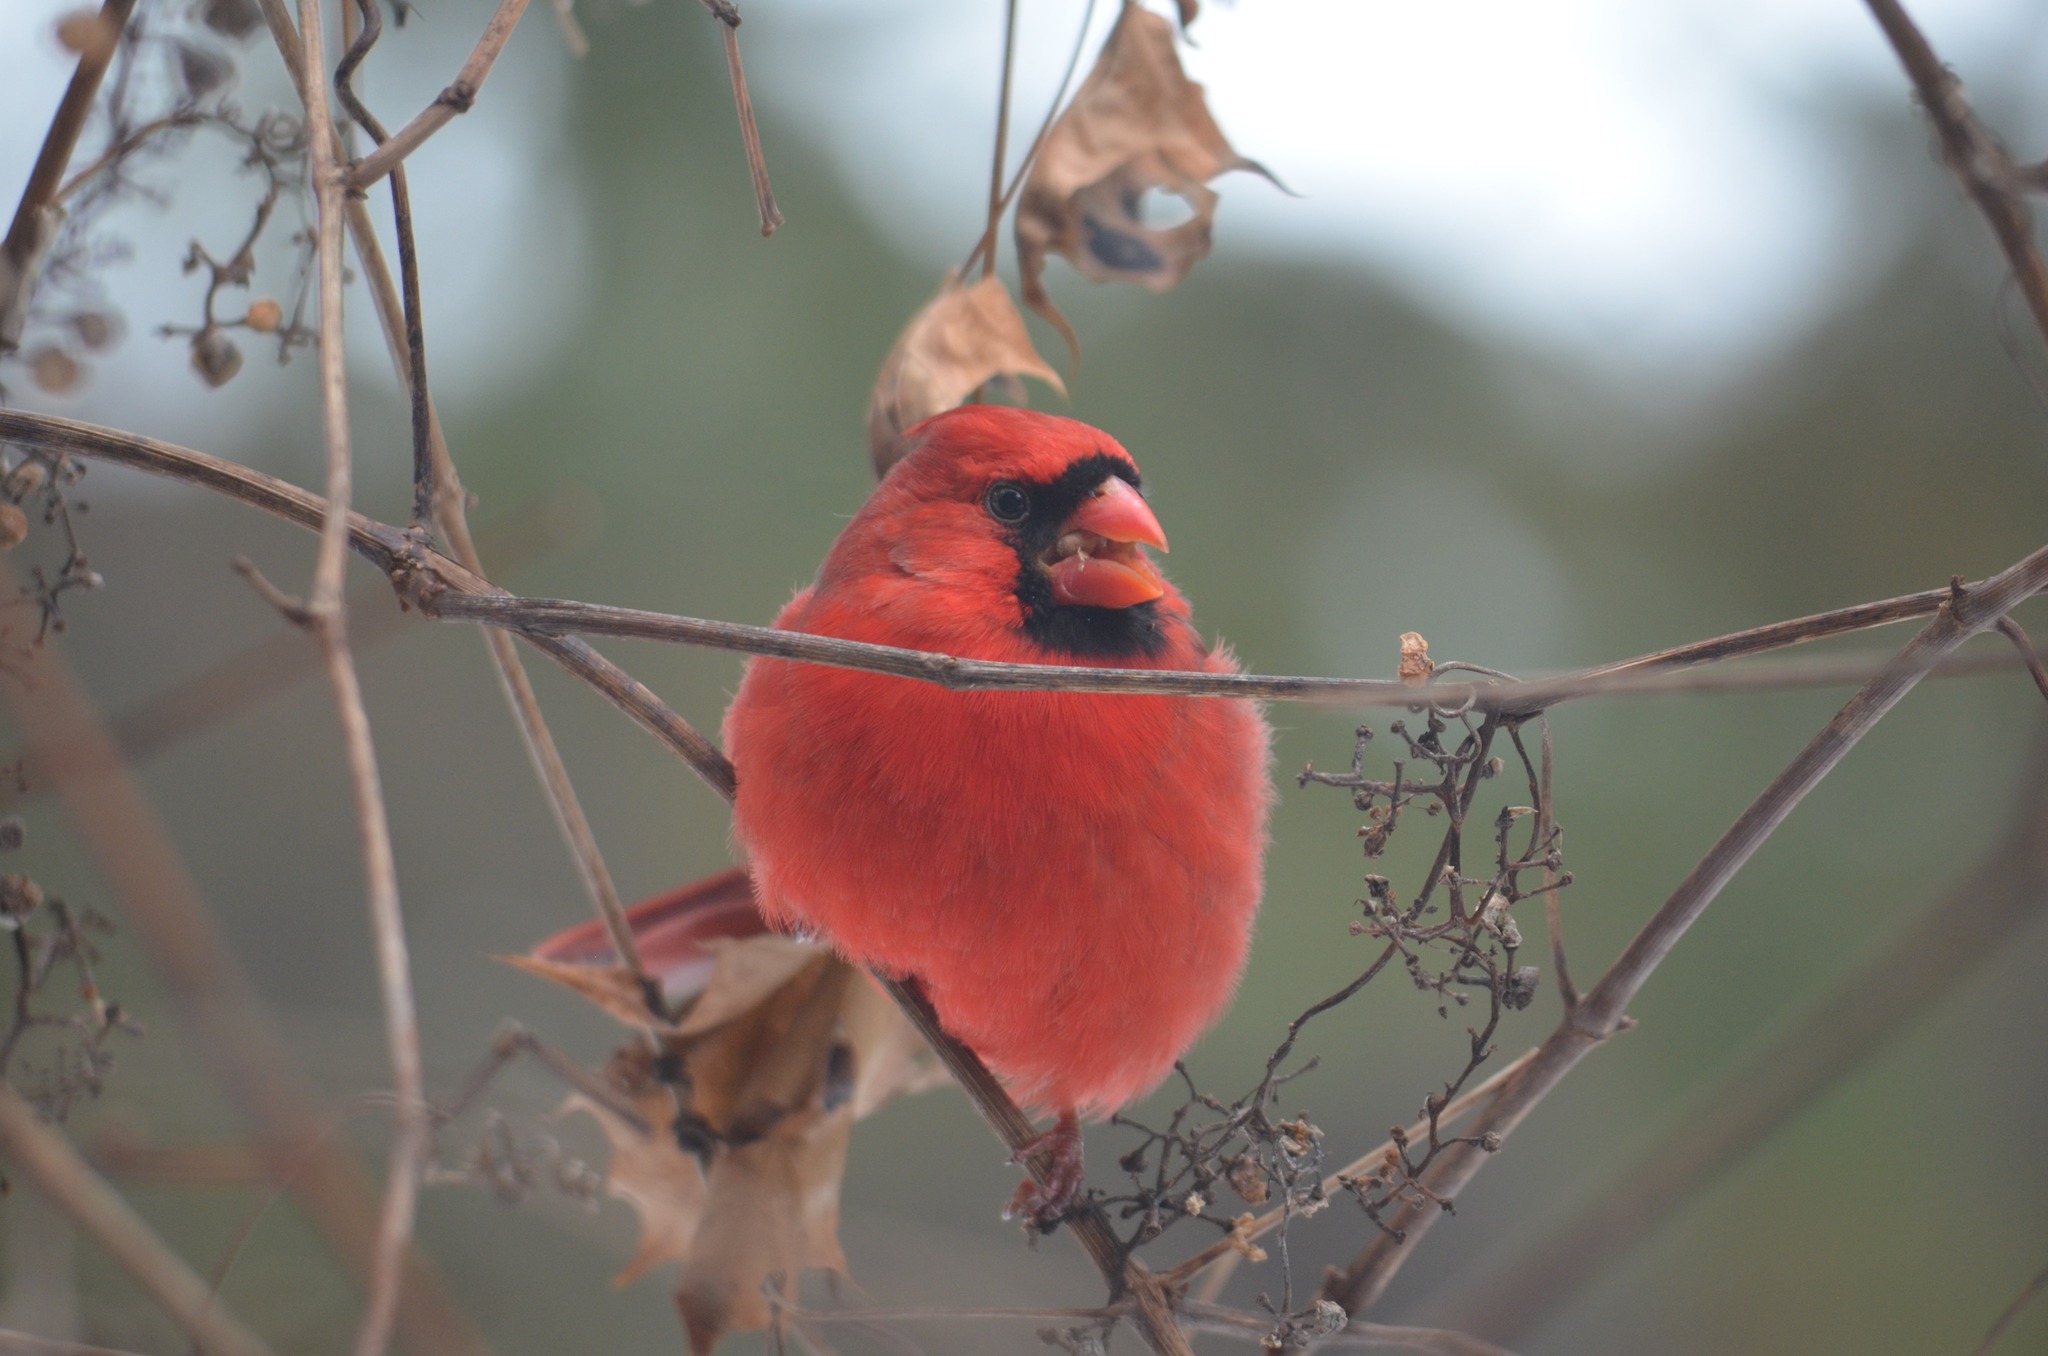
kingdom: Animalia
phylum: Chordata
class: Aves
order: Passeriformes
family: Cardinalidae
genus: Cardinalis
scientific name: Cardinalis cardinalis
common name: Northern cardinal
